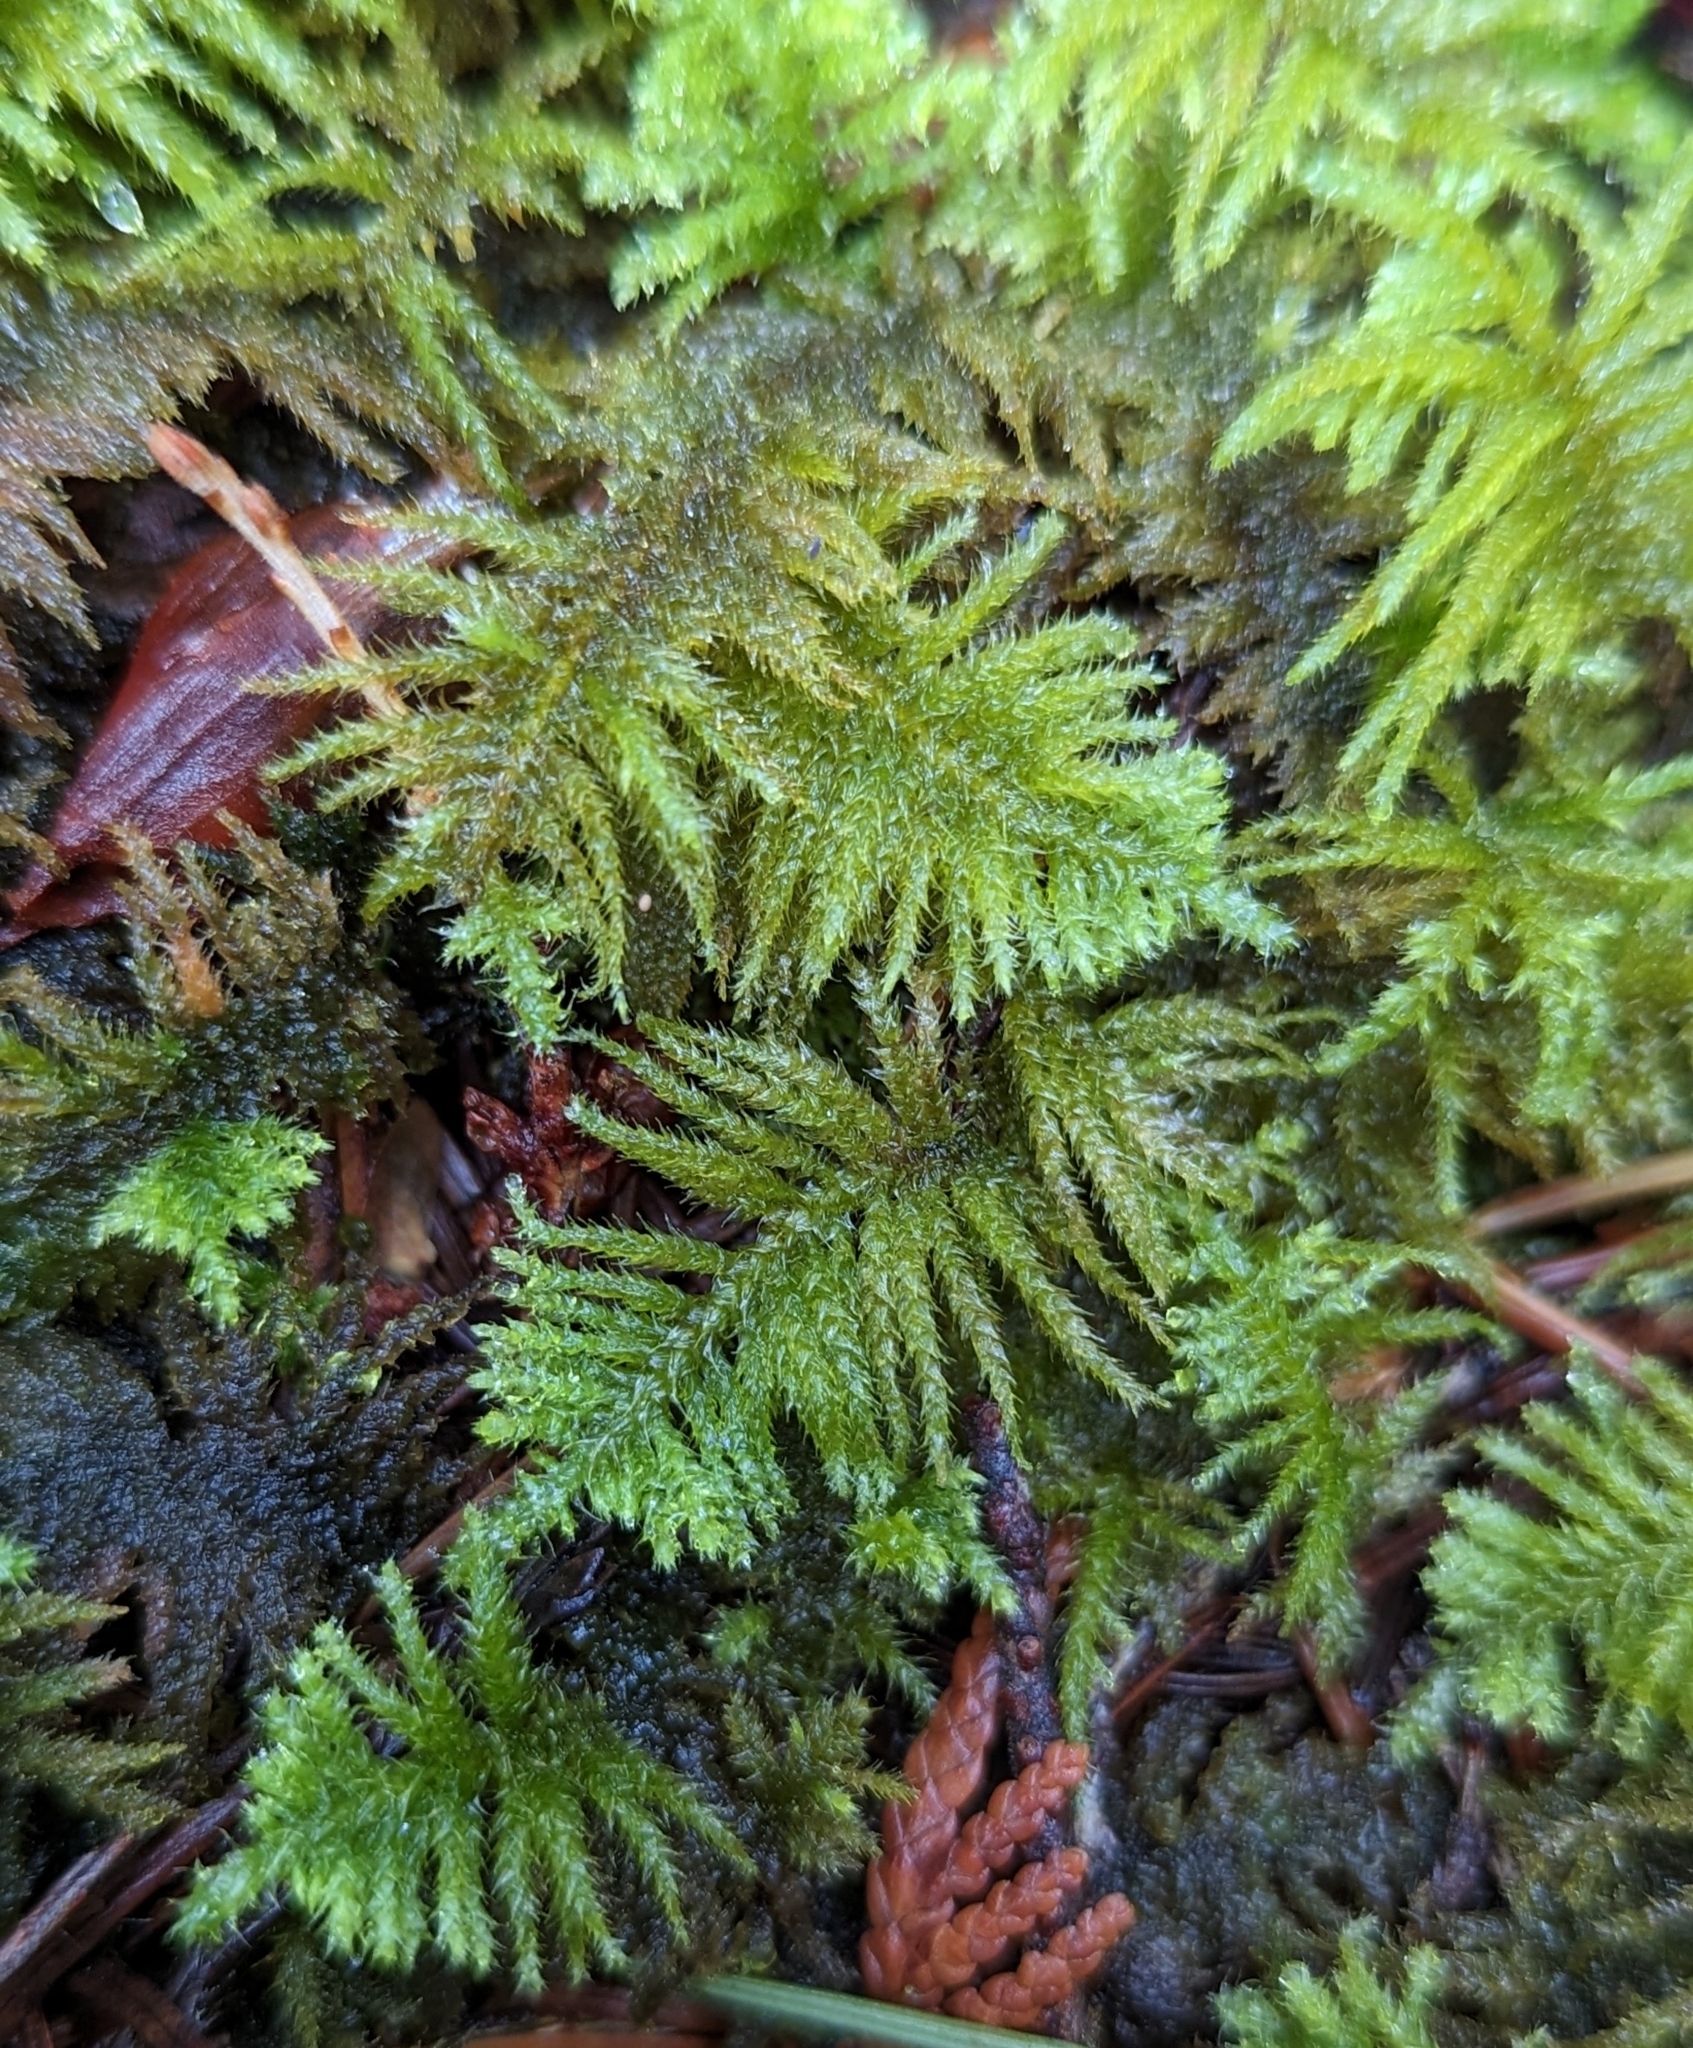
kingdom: Plantae
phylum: Bryophyta
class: Bryopsida
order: Hypnales
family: Brachytheciaceae
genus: Kindbergia
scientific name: Kindbergia oregana
